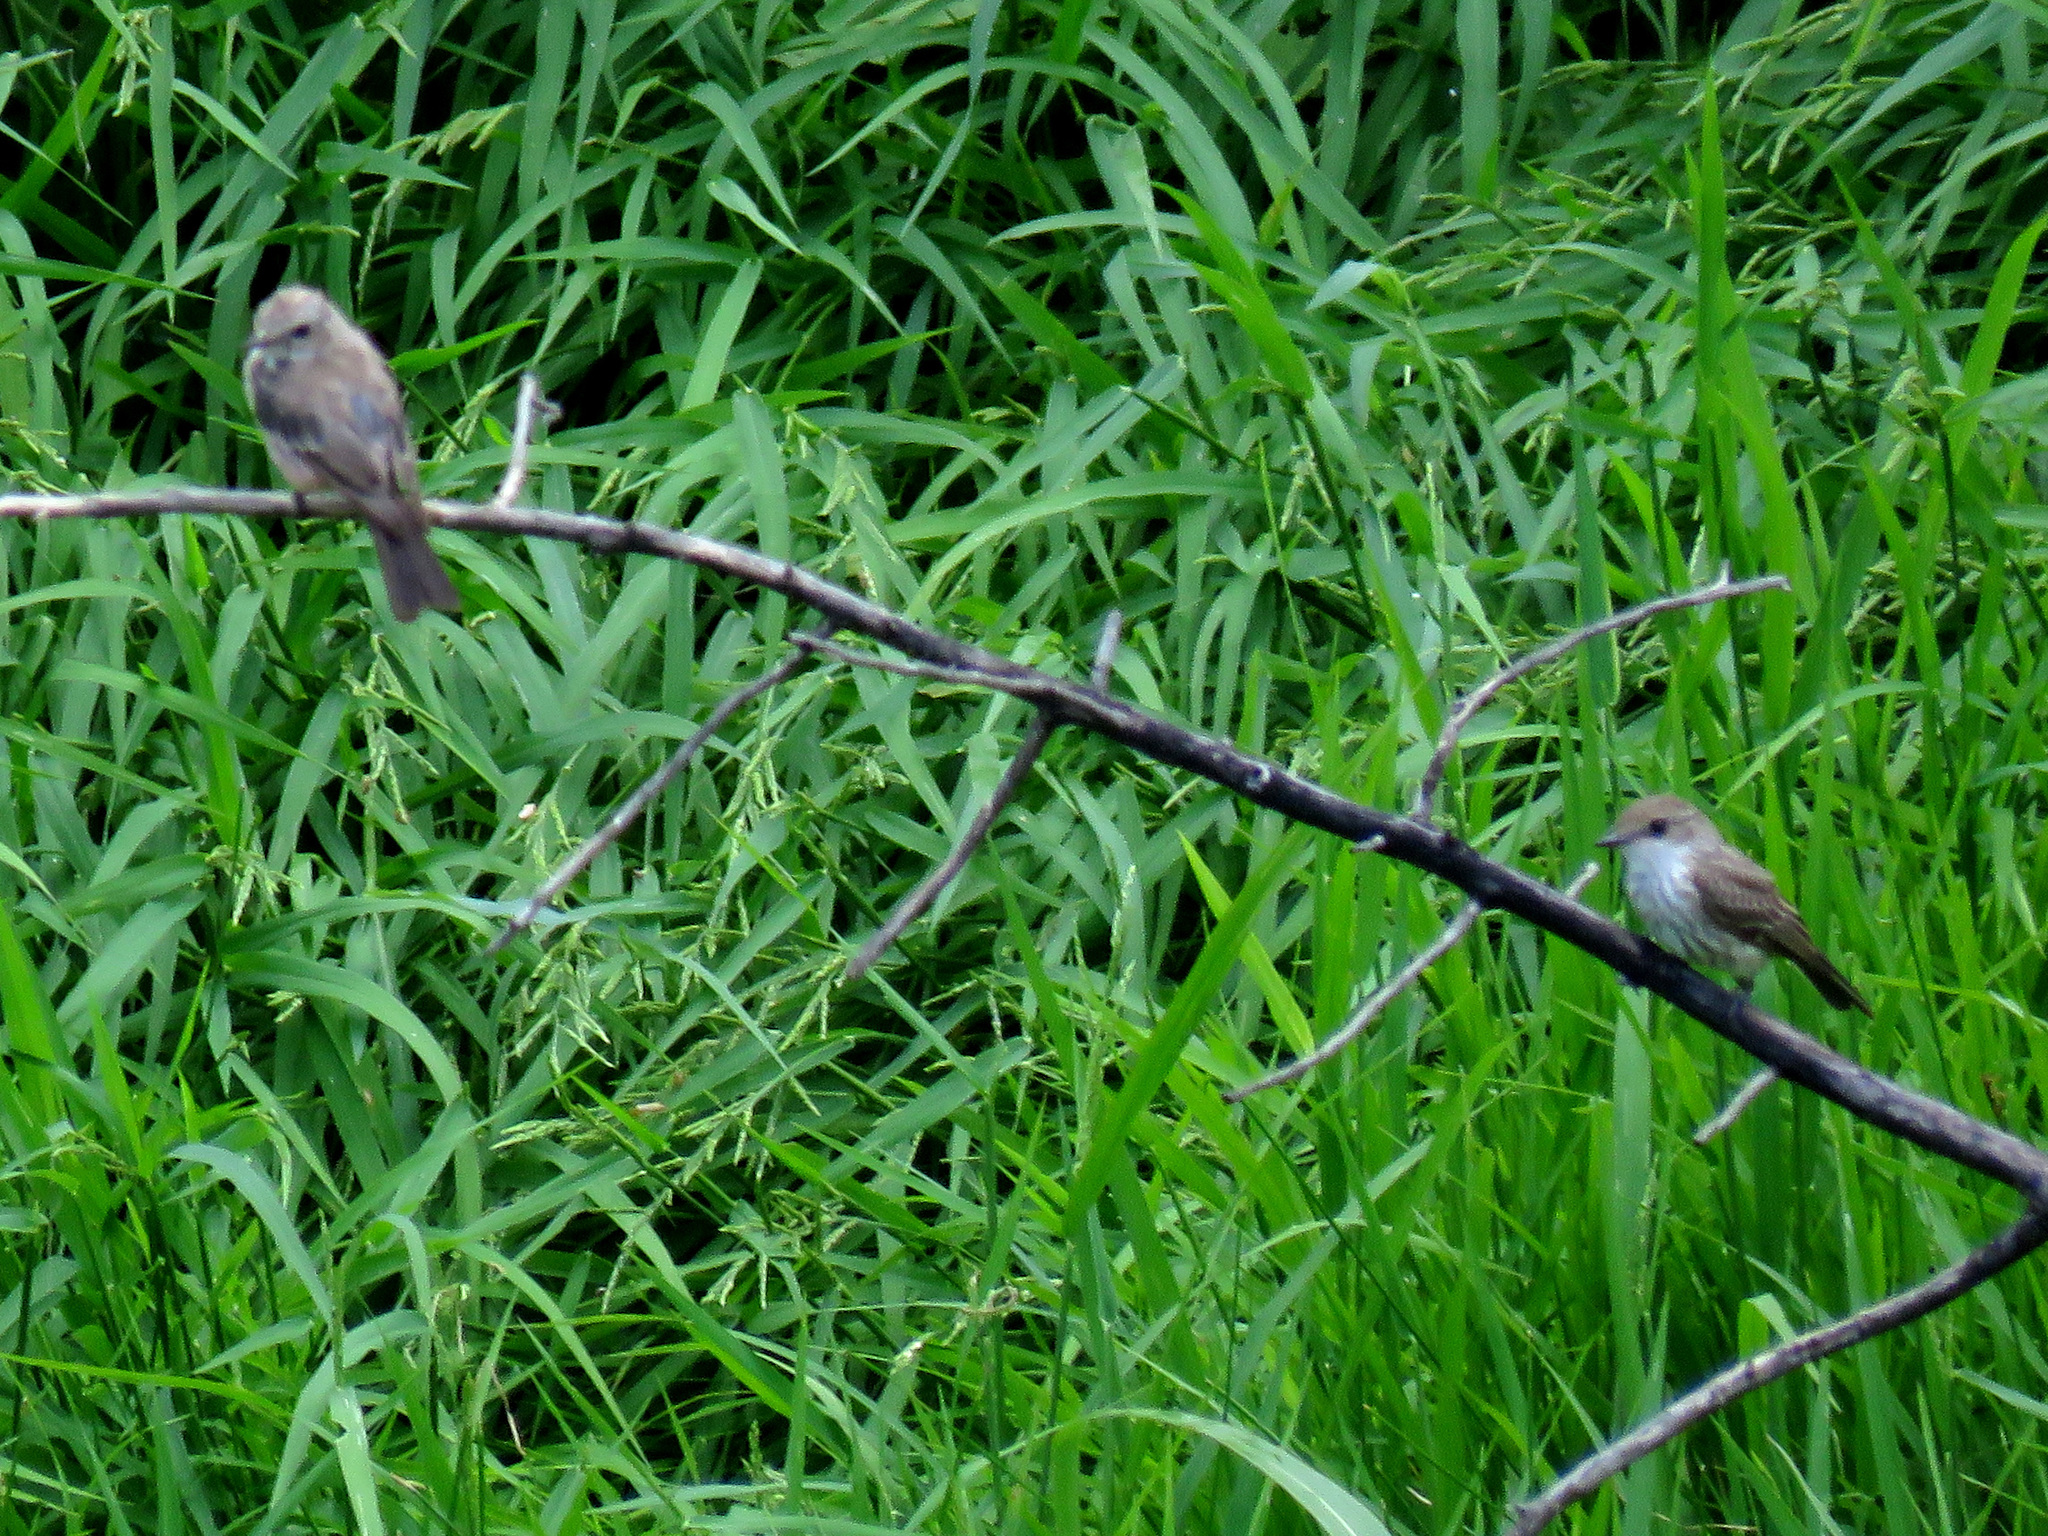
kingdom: Animalia
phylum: Chordata
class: Aves
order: Passeriformes
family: Tyrannidae
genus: Pyrocephalus
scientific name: Pyrocephalus rubinus
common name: Vermilion flycatcher
